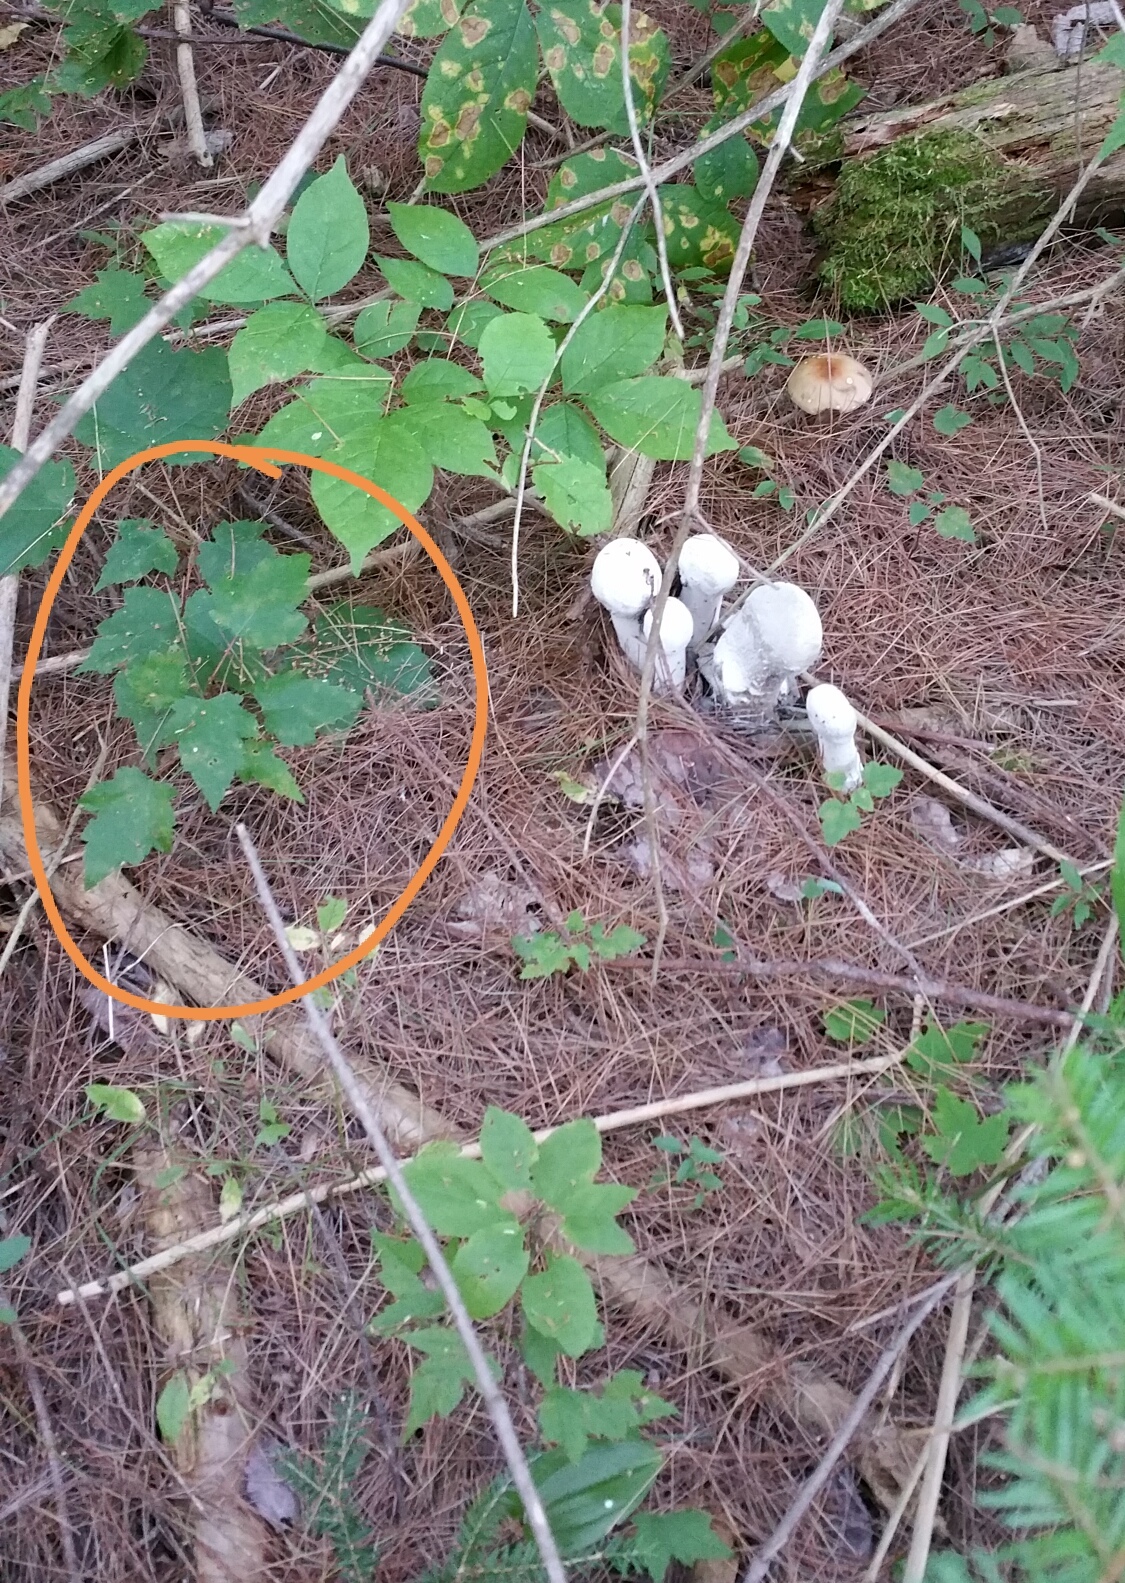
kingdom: Plantae
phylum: Tracheophyta
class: Magnoliopsida
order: Sapindales
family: Sapindaceae
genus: Acer
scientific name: Acer rubrum
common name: Red maple
